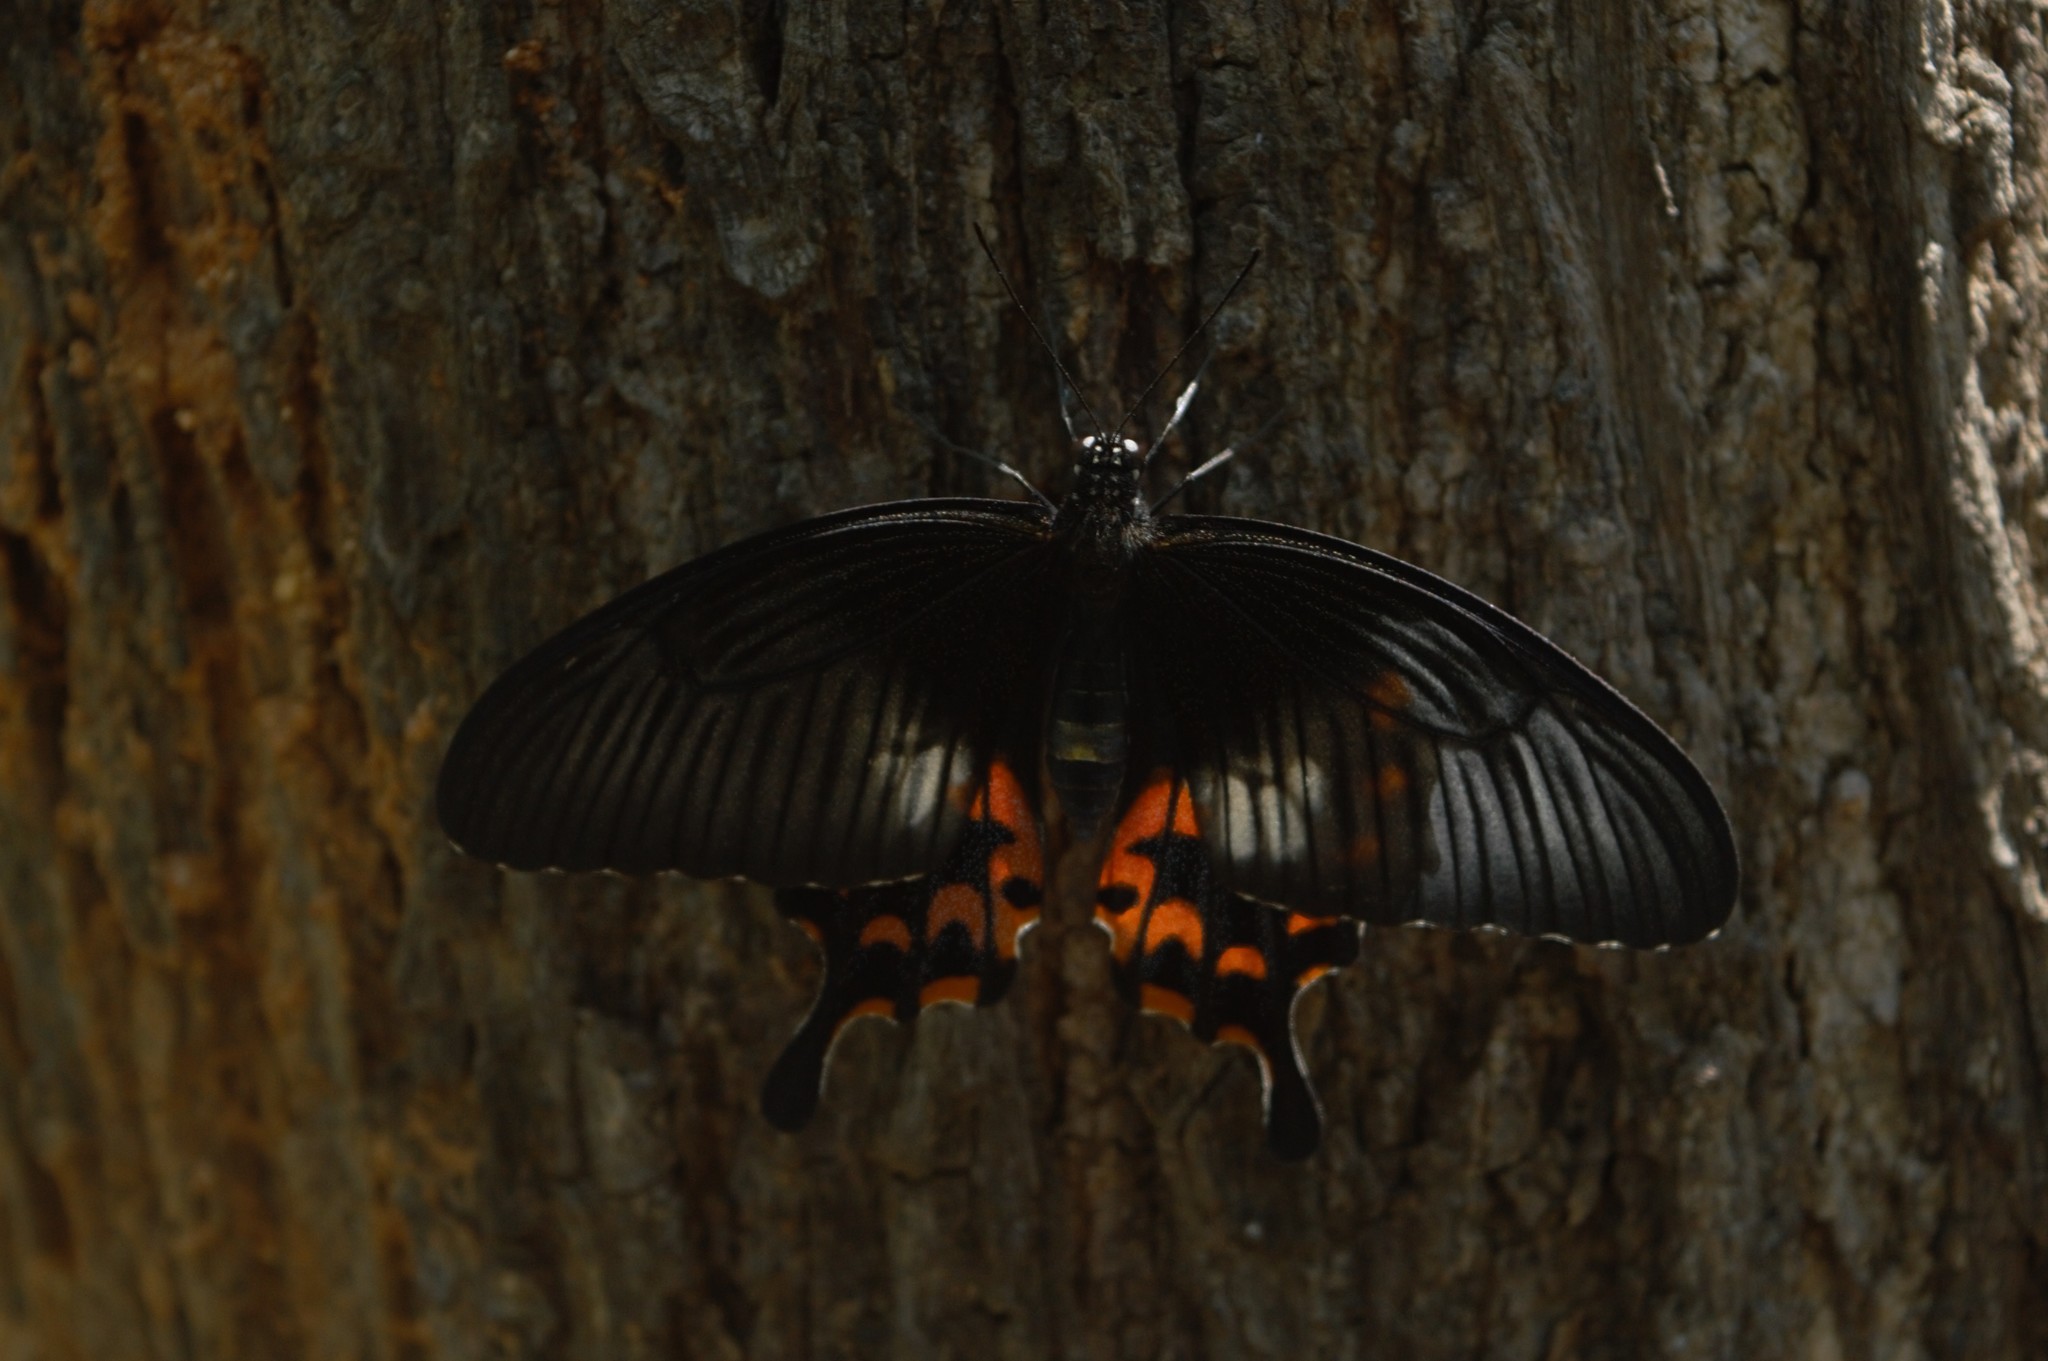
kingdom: Animalia
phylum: Arthropoda
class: Insecta
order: Lepidoptera
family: Papilionidae
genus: Papilio
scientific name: Papilio polytes
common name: Common mormon
